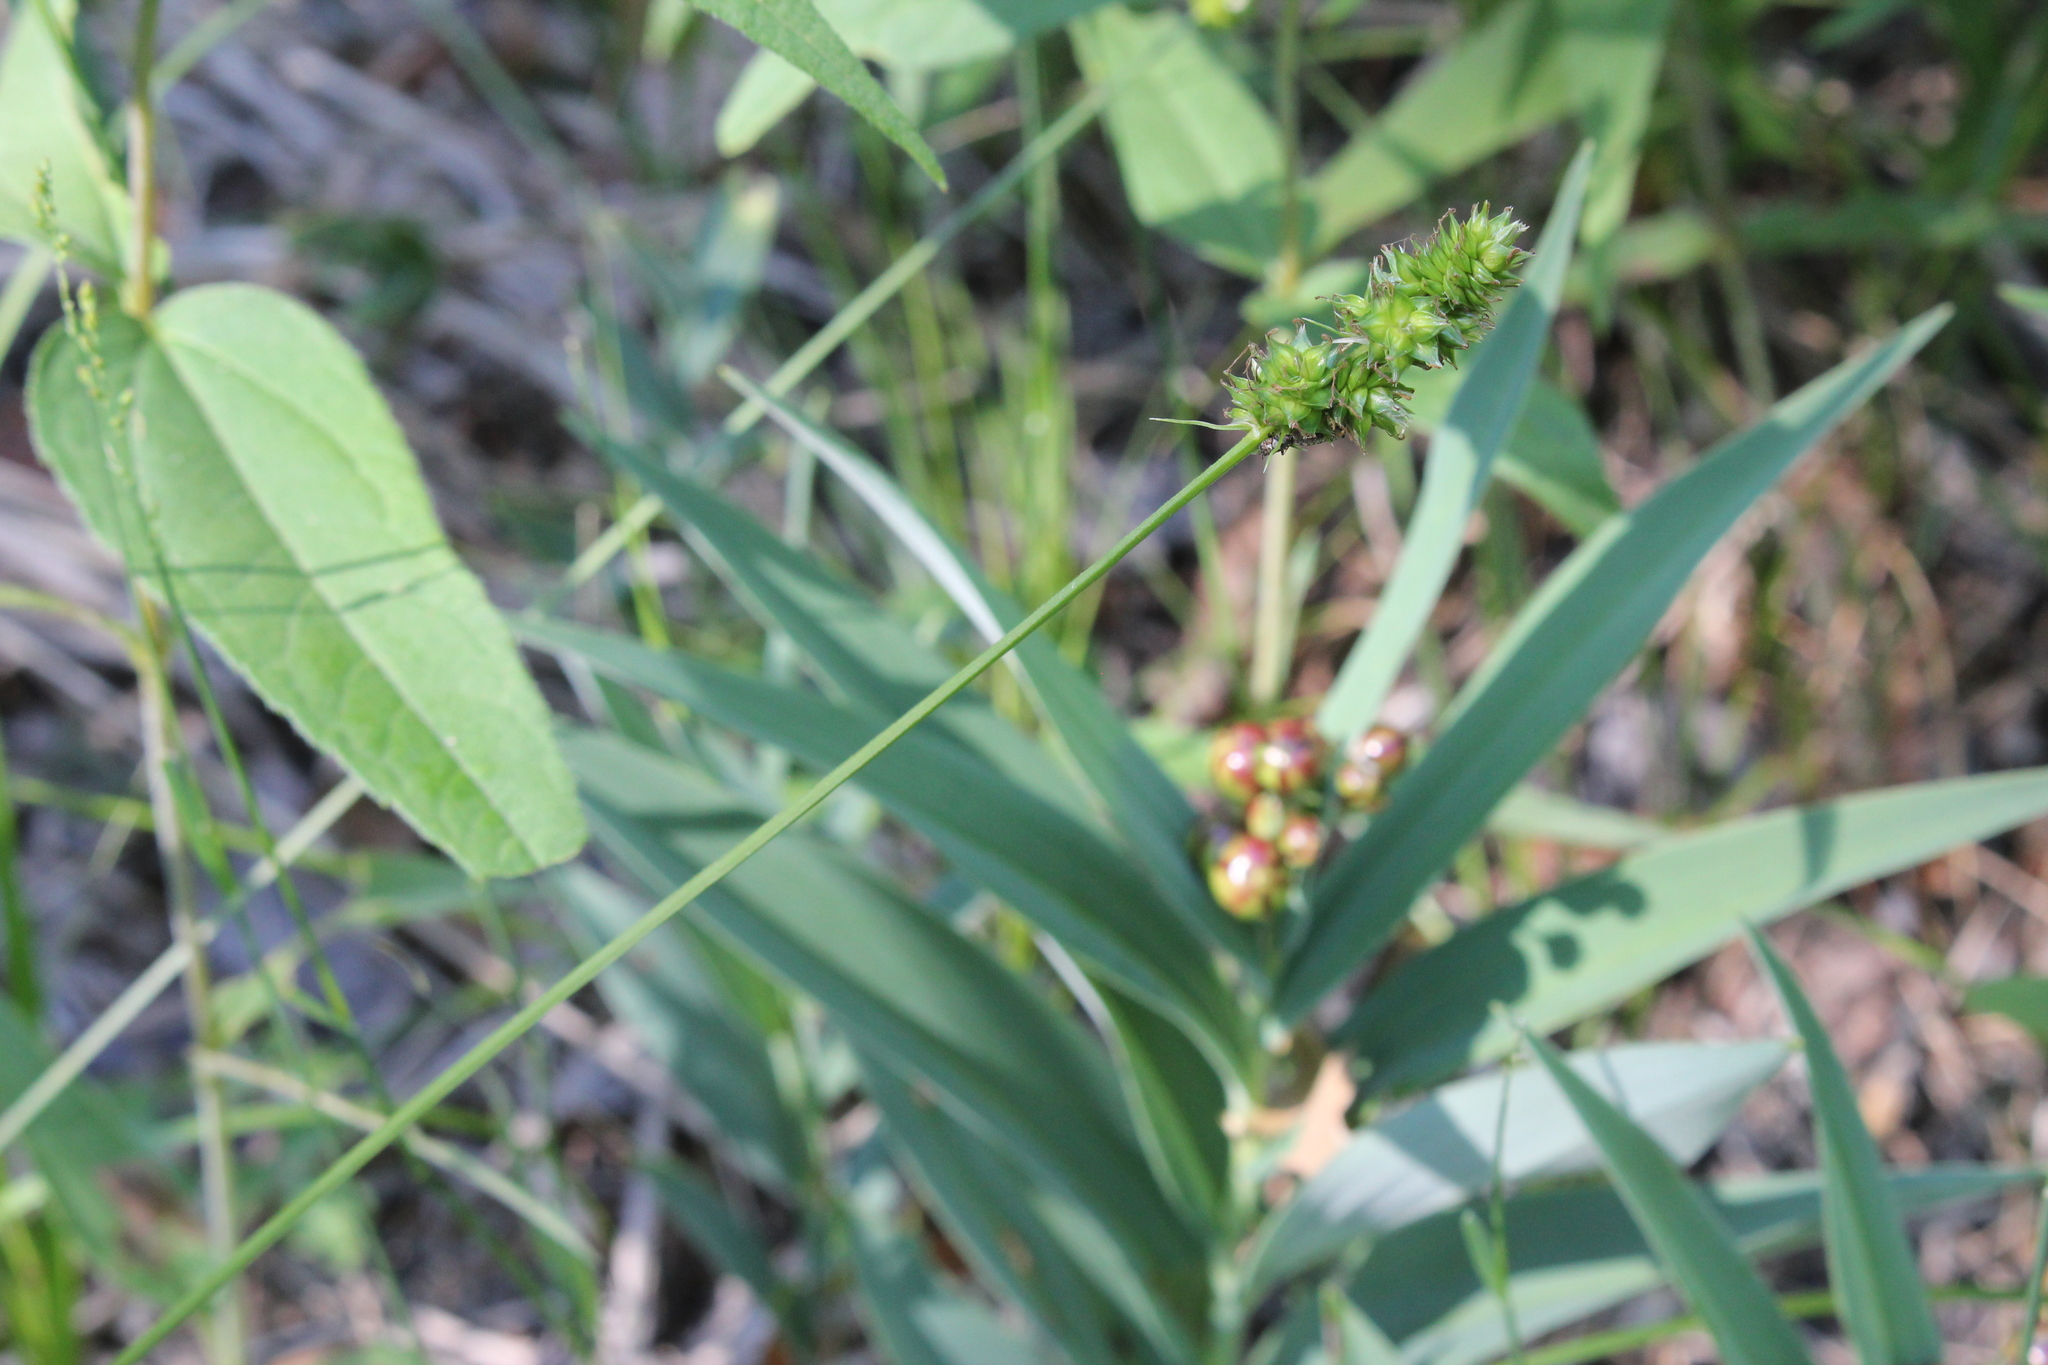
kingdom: Plantae
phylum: Tracheophyta
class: Liliopsida
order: Poales
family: Cyperaceae
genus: Carex
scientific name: Carex muehlenbergii
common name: Muhlenberg's bracted sedge
